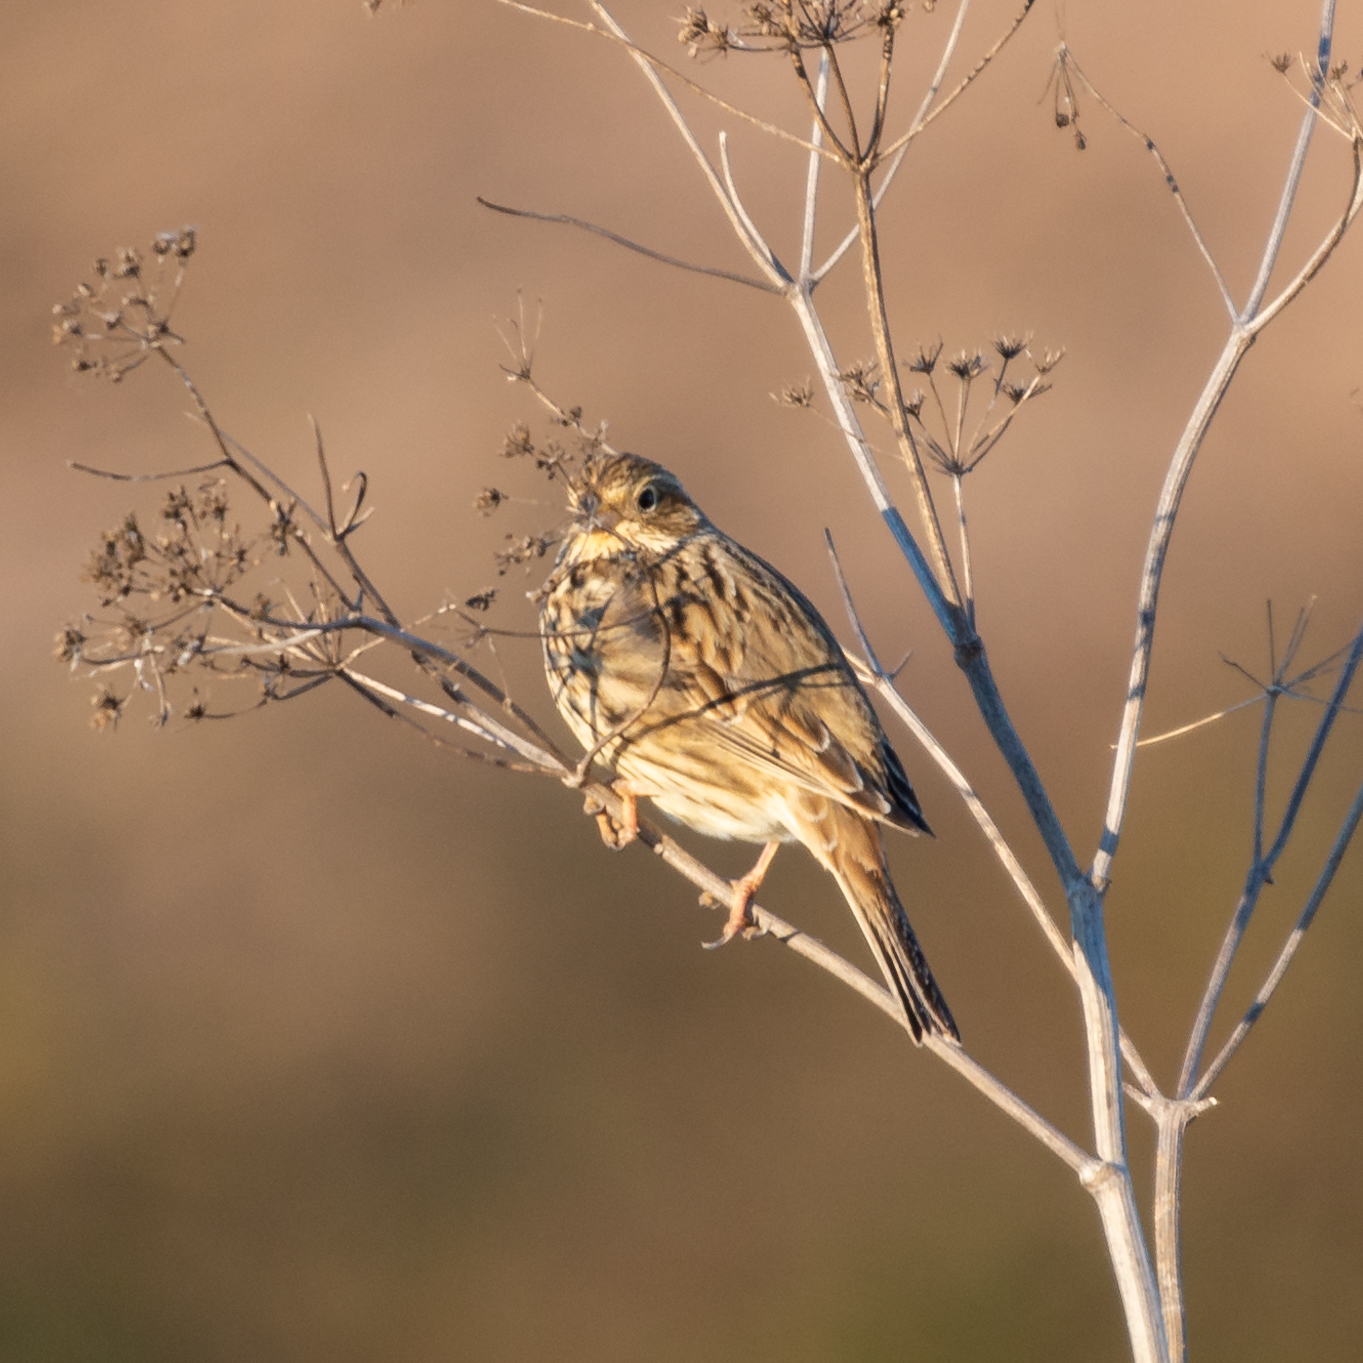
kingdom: Animalia
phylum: Chordata
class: Aves
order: Passeriformes
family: Emberizidae
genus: Emberiza
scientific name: Emberiza calandra
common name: Corn bunting
